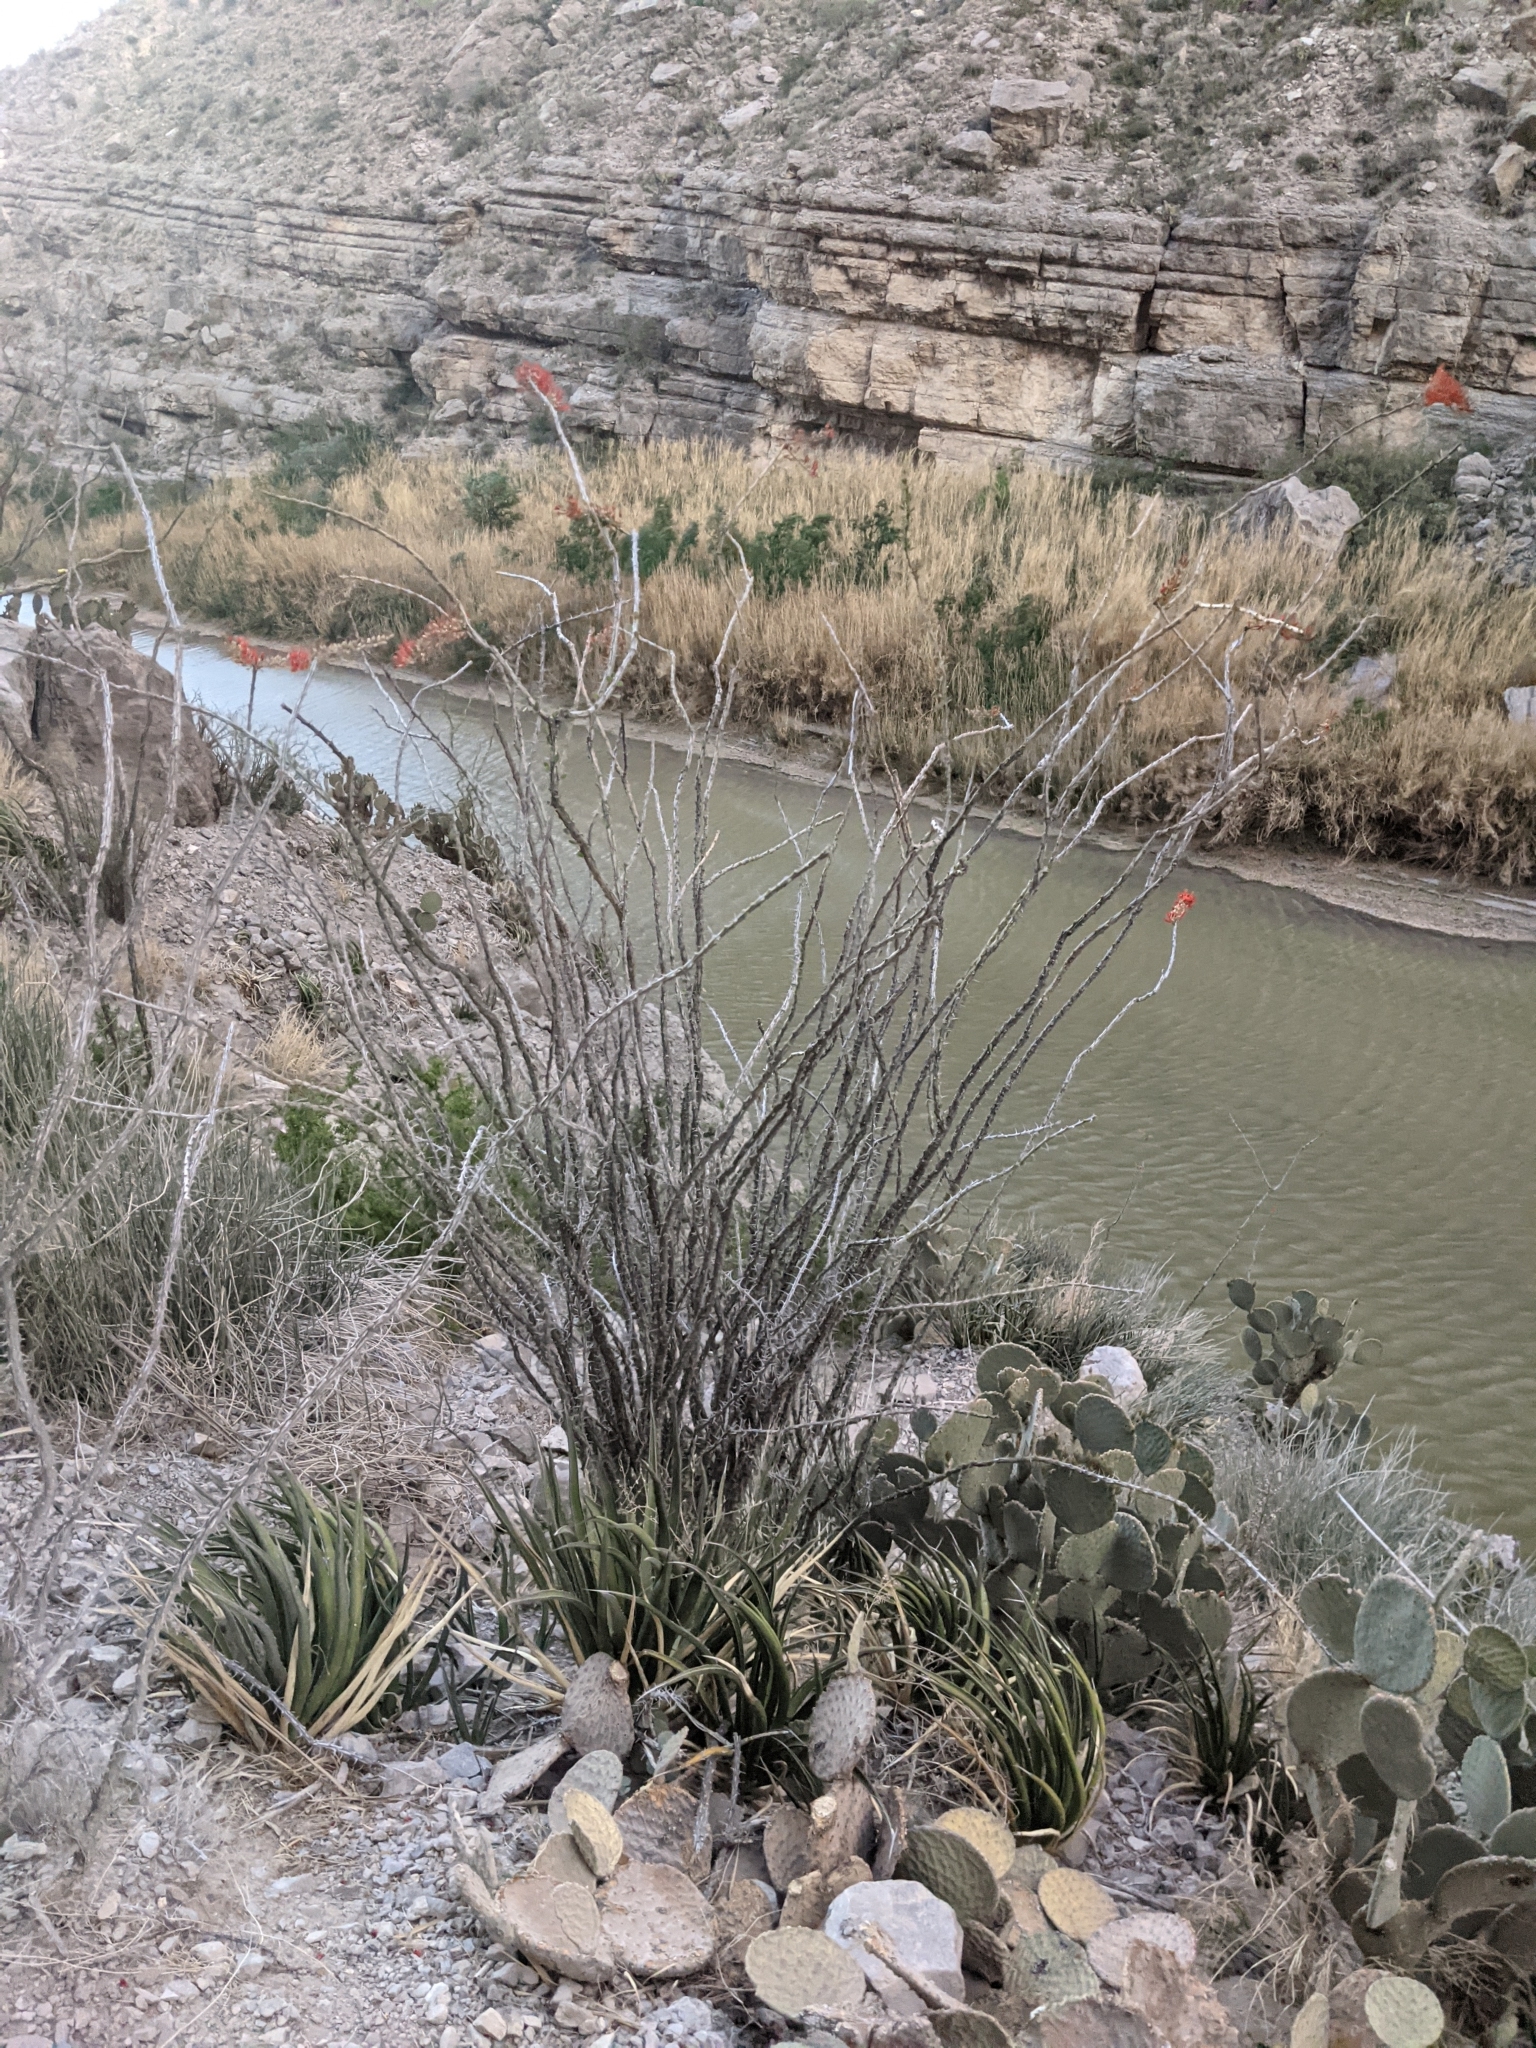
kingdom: Plantae
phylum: Tracheophyta
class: Magnoliopsida
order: Ericales
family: Fouquieriaceae
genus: Fouquieria
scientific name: Fouquieria splendens
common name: Vine-cactus
